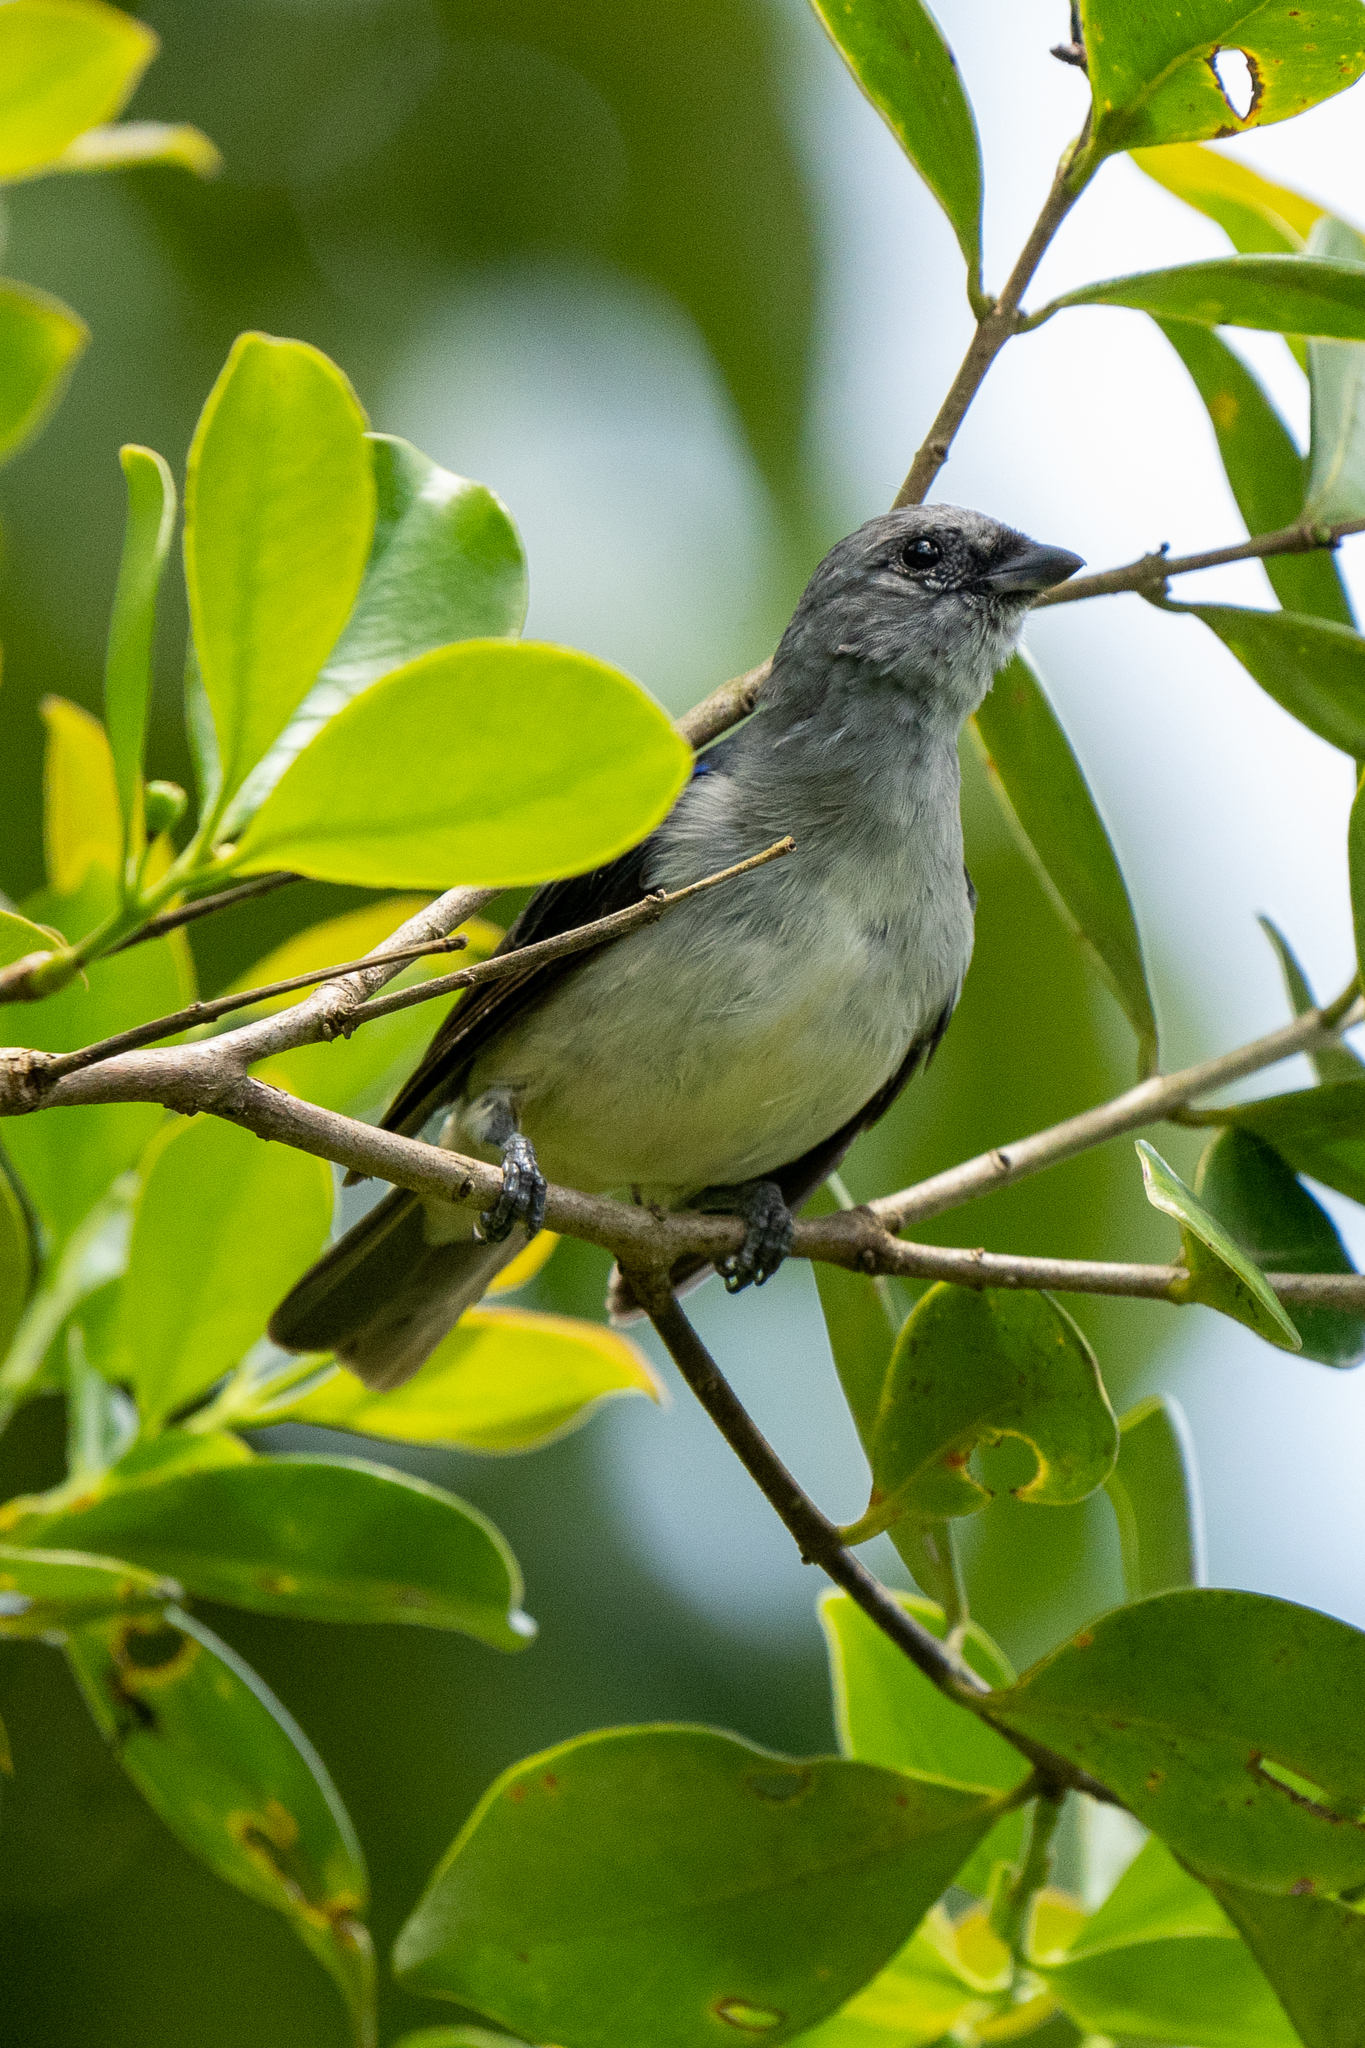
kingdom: Animalia
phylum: Chordata
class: Aves
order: Passeriformes
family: Thraupidae
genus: Tangara
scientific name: Tangara inornata
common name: Plain-colored tanager
